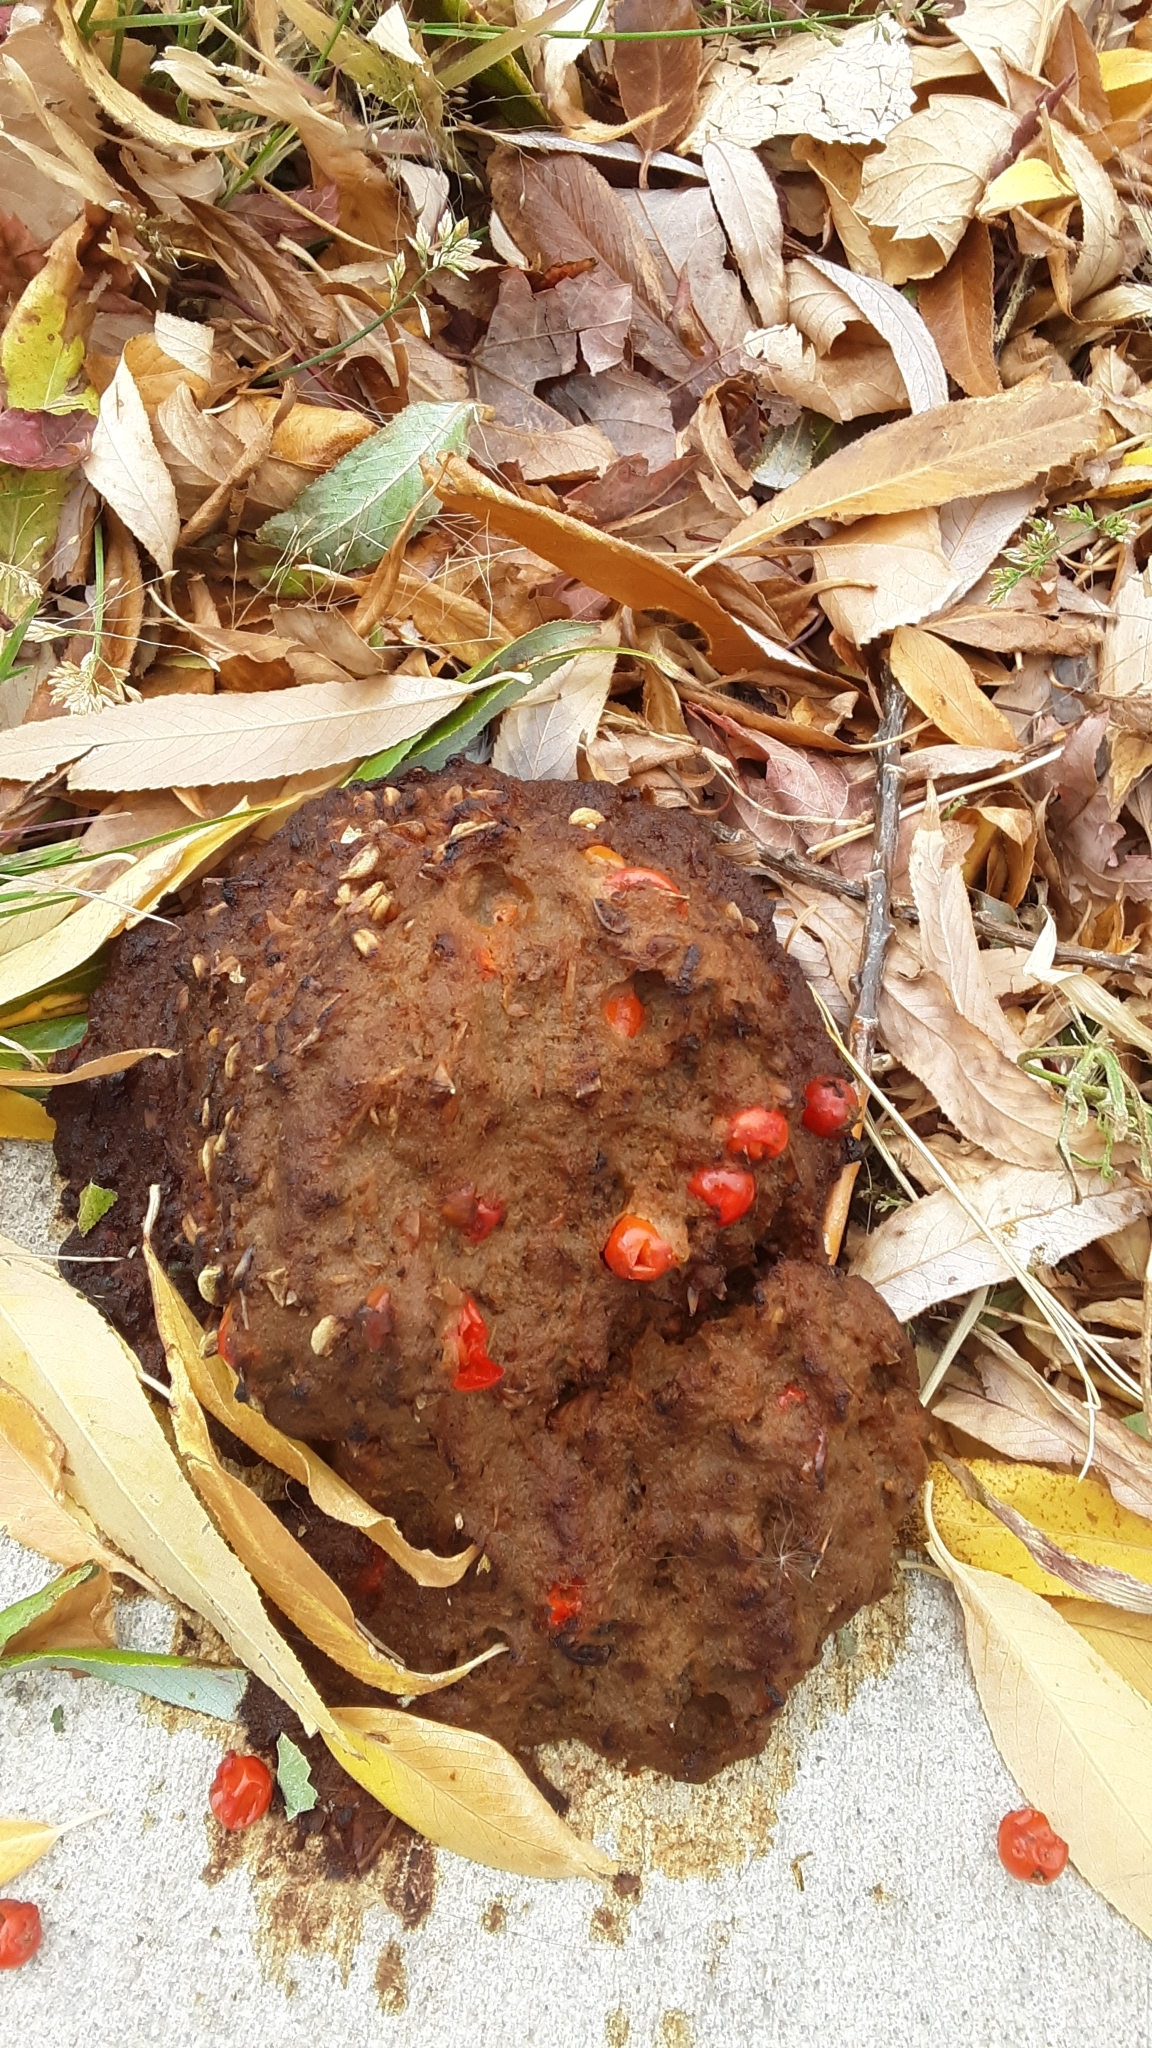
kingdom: Animalia
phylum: Chordata
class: Mammalia
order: Carnivora
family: Ursidae
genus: Ursus
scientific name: Ursus americanus
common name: American black bear
